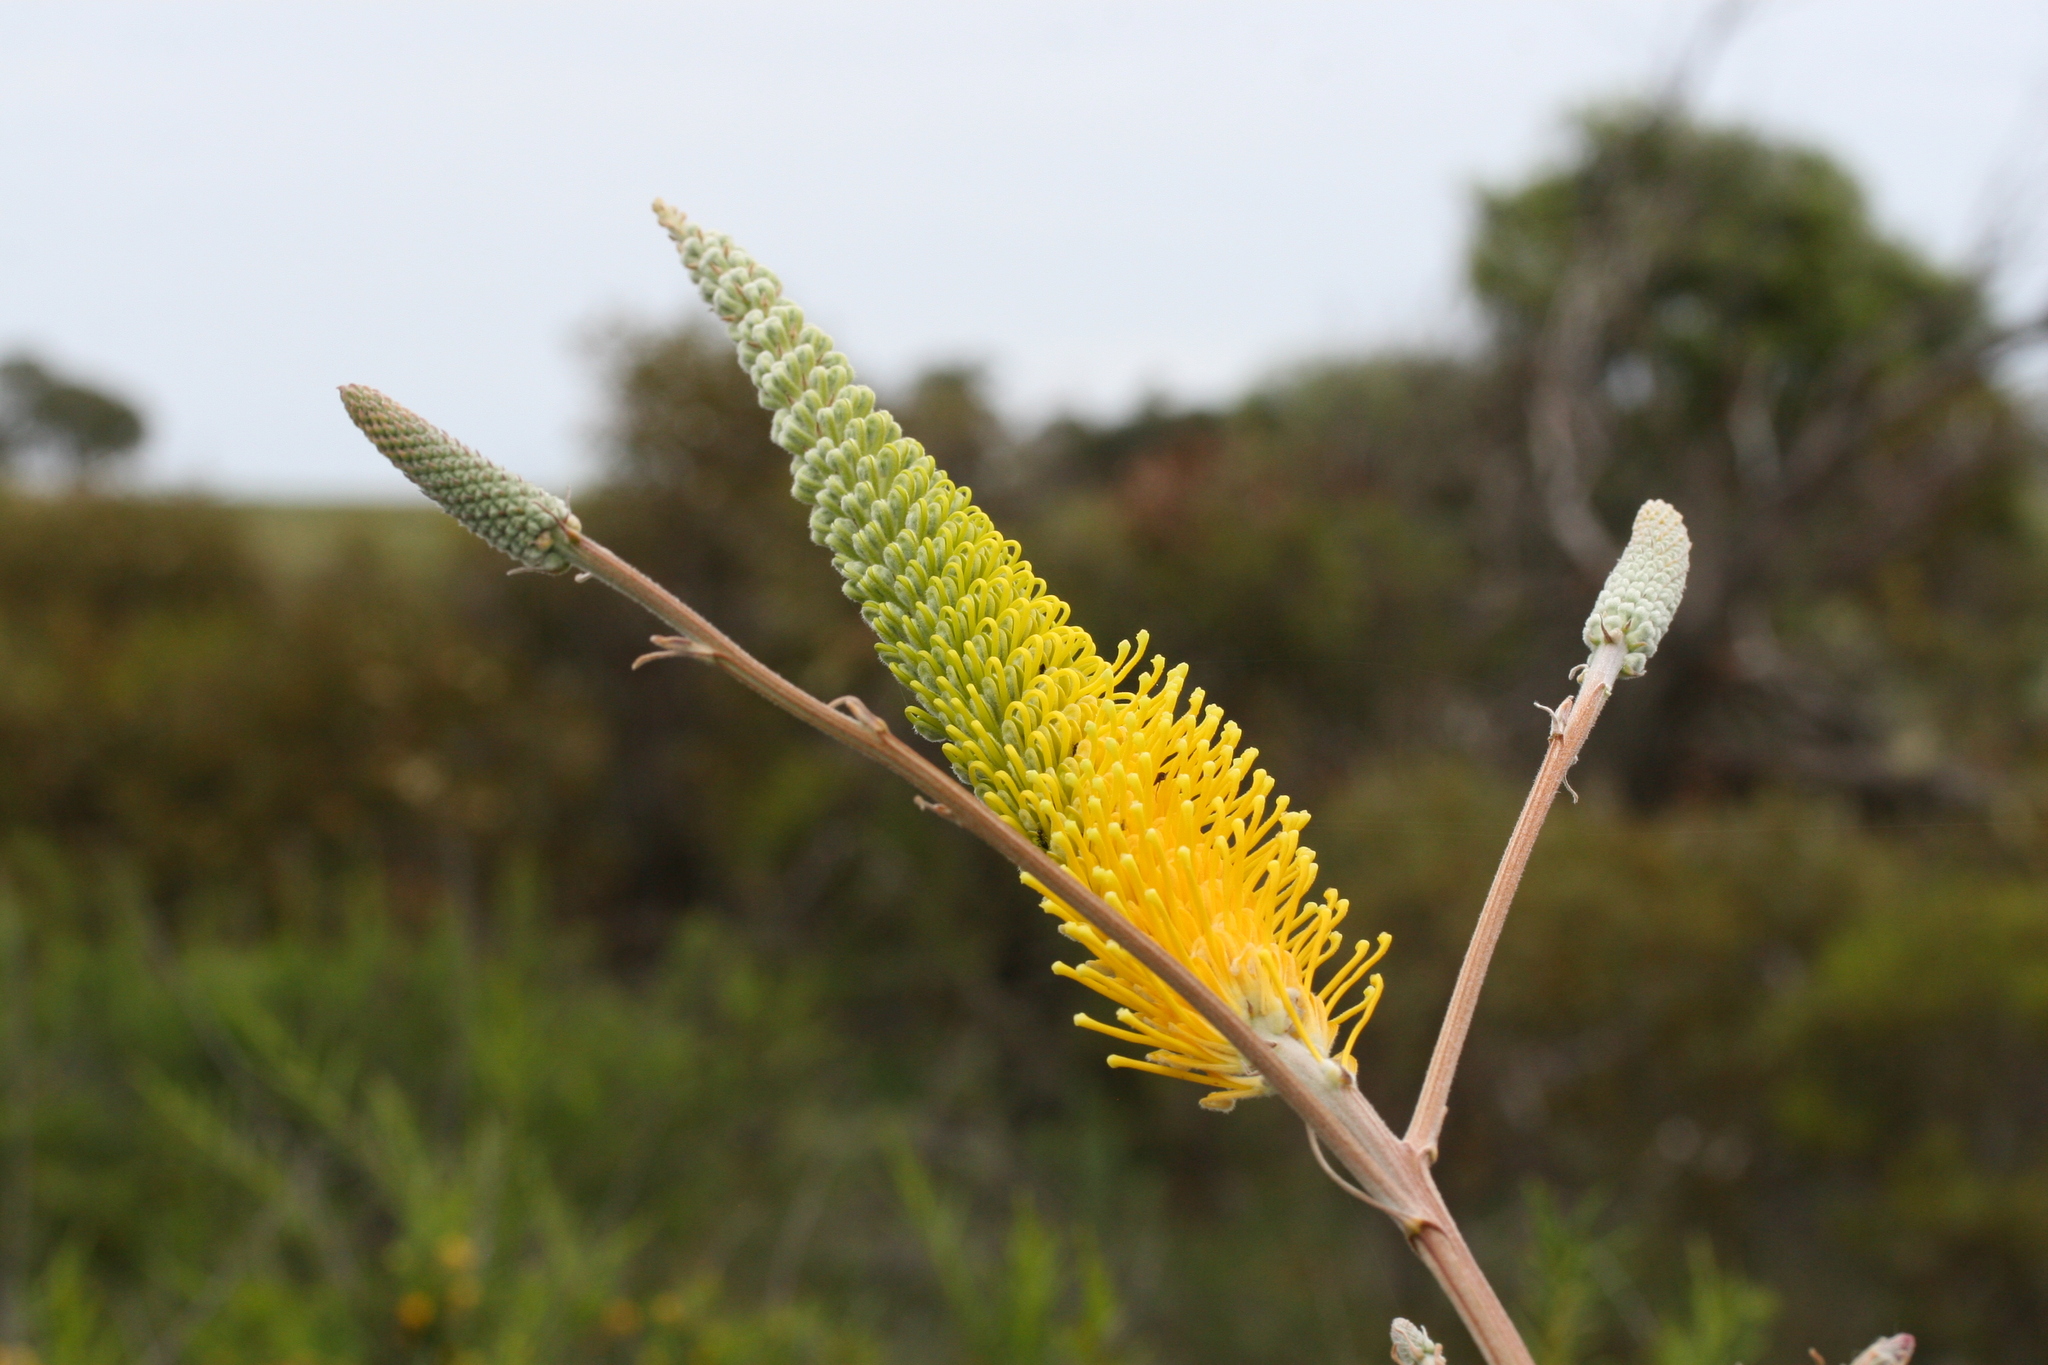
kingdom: Plantae
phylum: Tracheophyta
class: Magnoliopsida
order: Proteales
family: Proteaceae
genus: Grevillea
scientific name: Grevillea eriostachya
